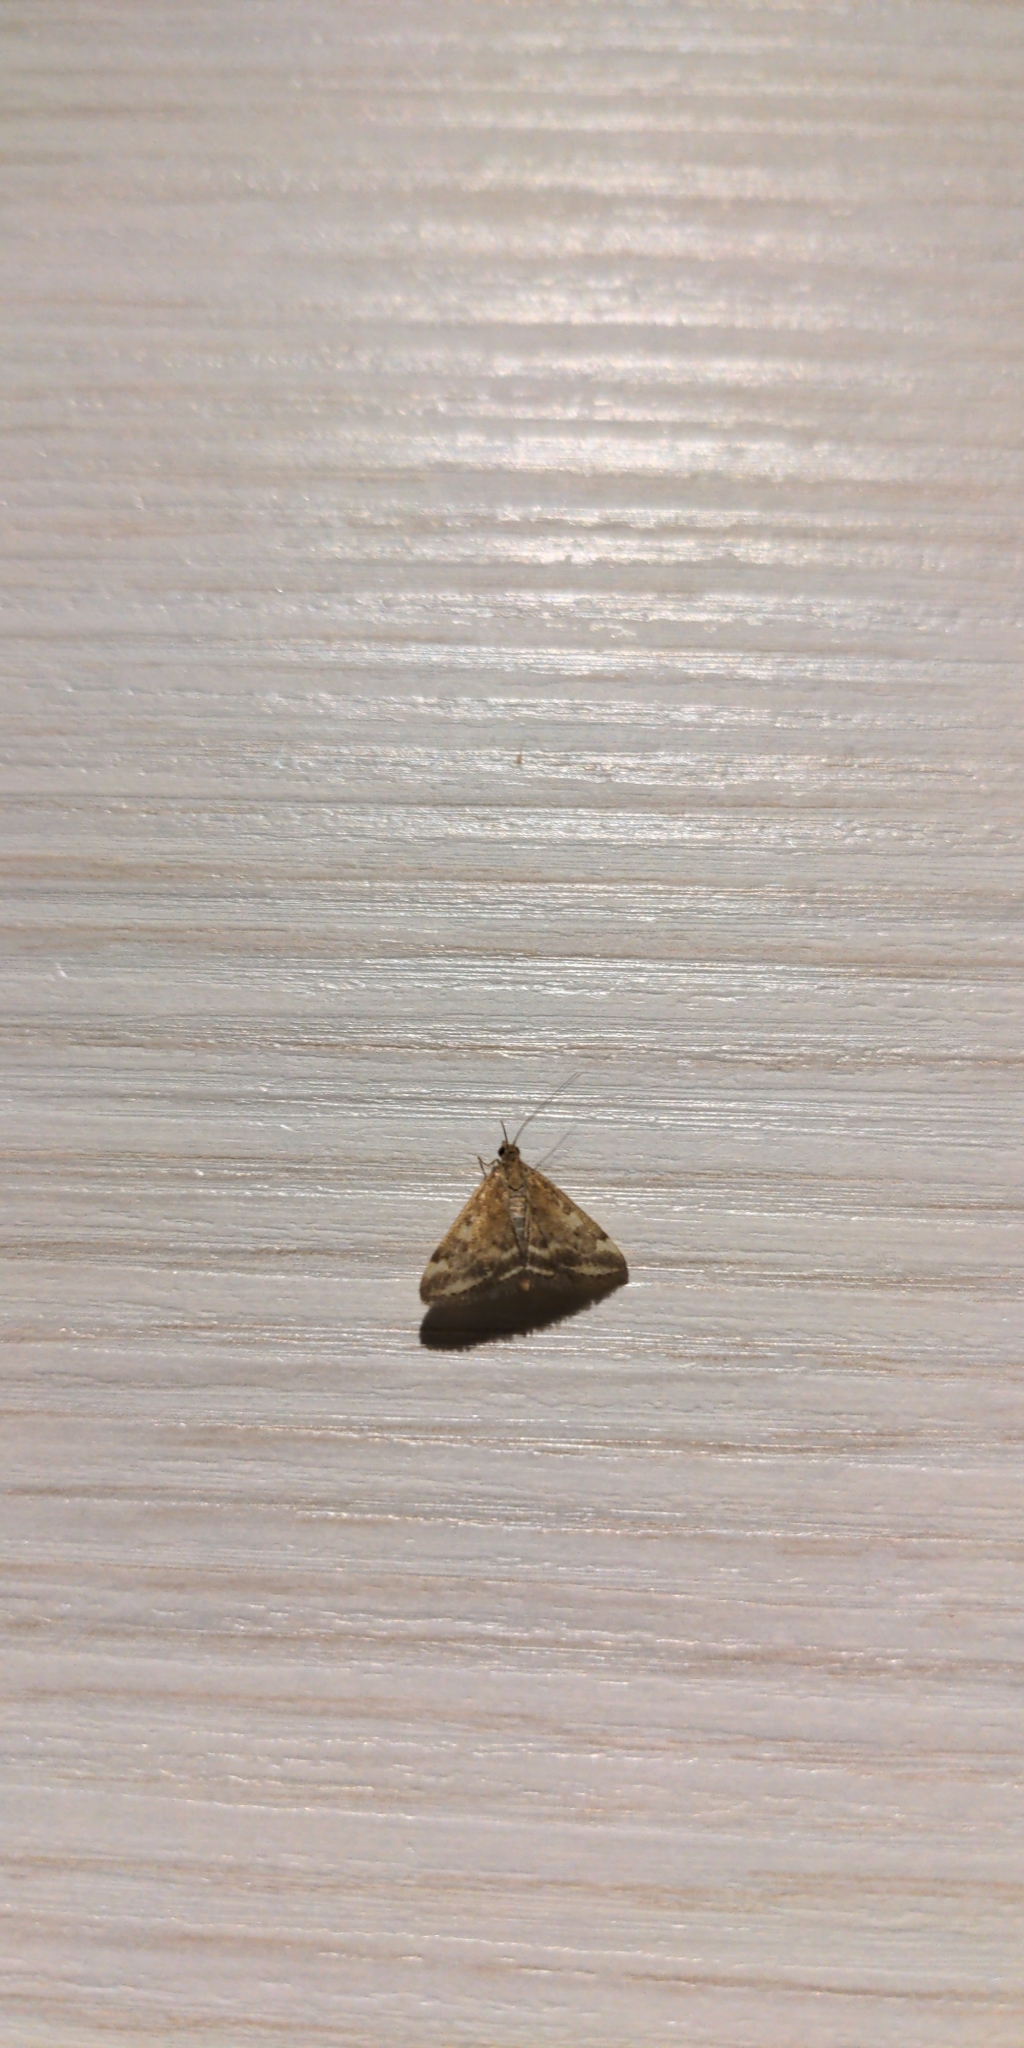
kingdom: Animalia
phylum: Arthropoda
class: Insecta
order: Lepidoptera
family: Crambidae
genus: Pyrausta
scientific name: Pyrausta despicata
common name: Straw-barred pearl
